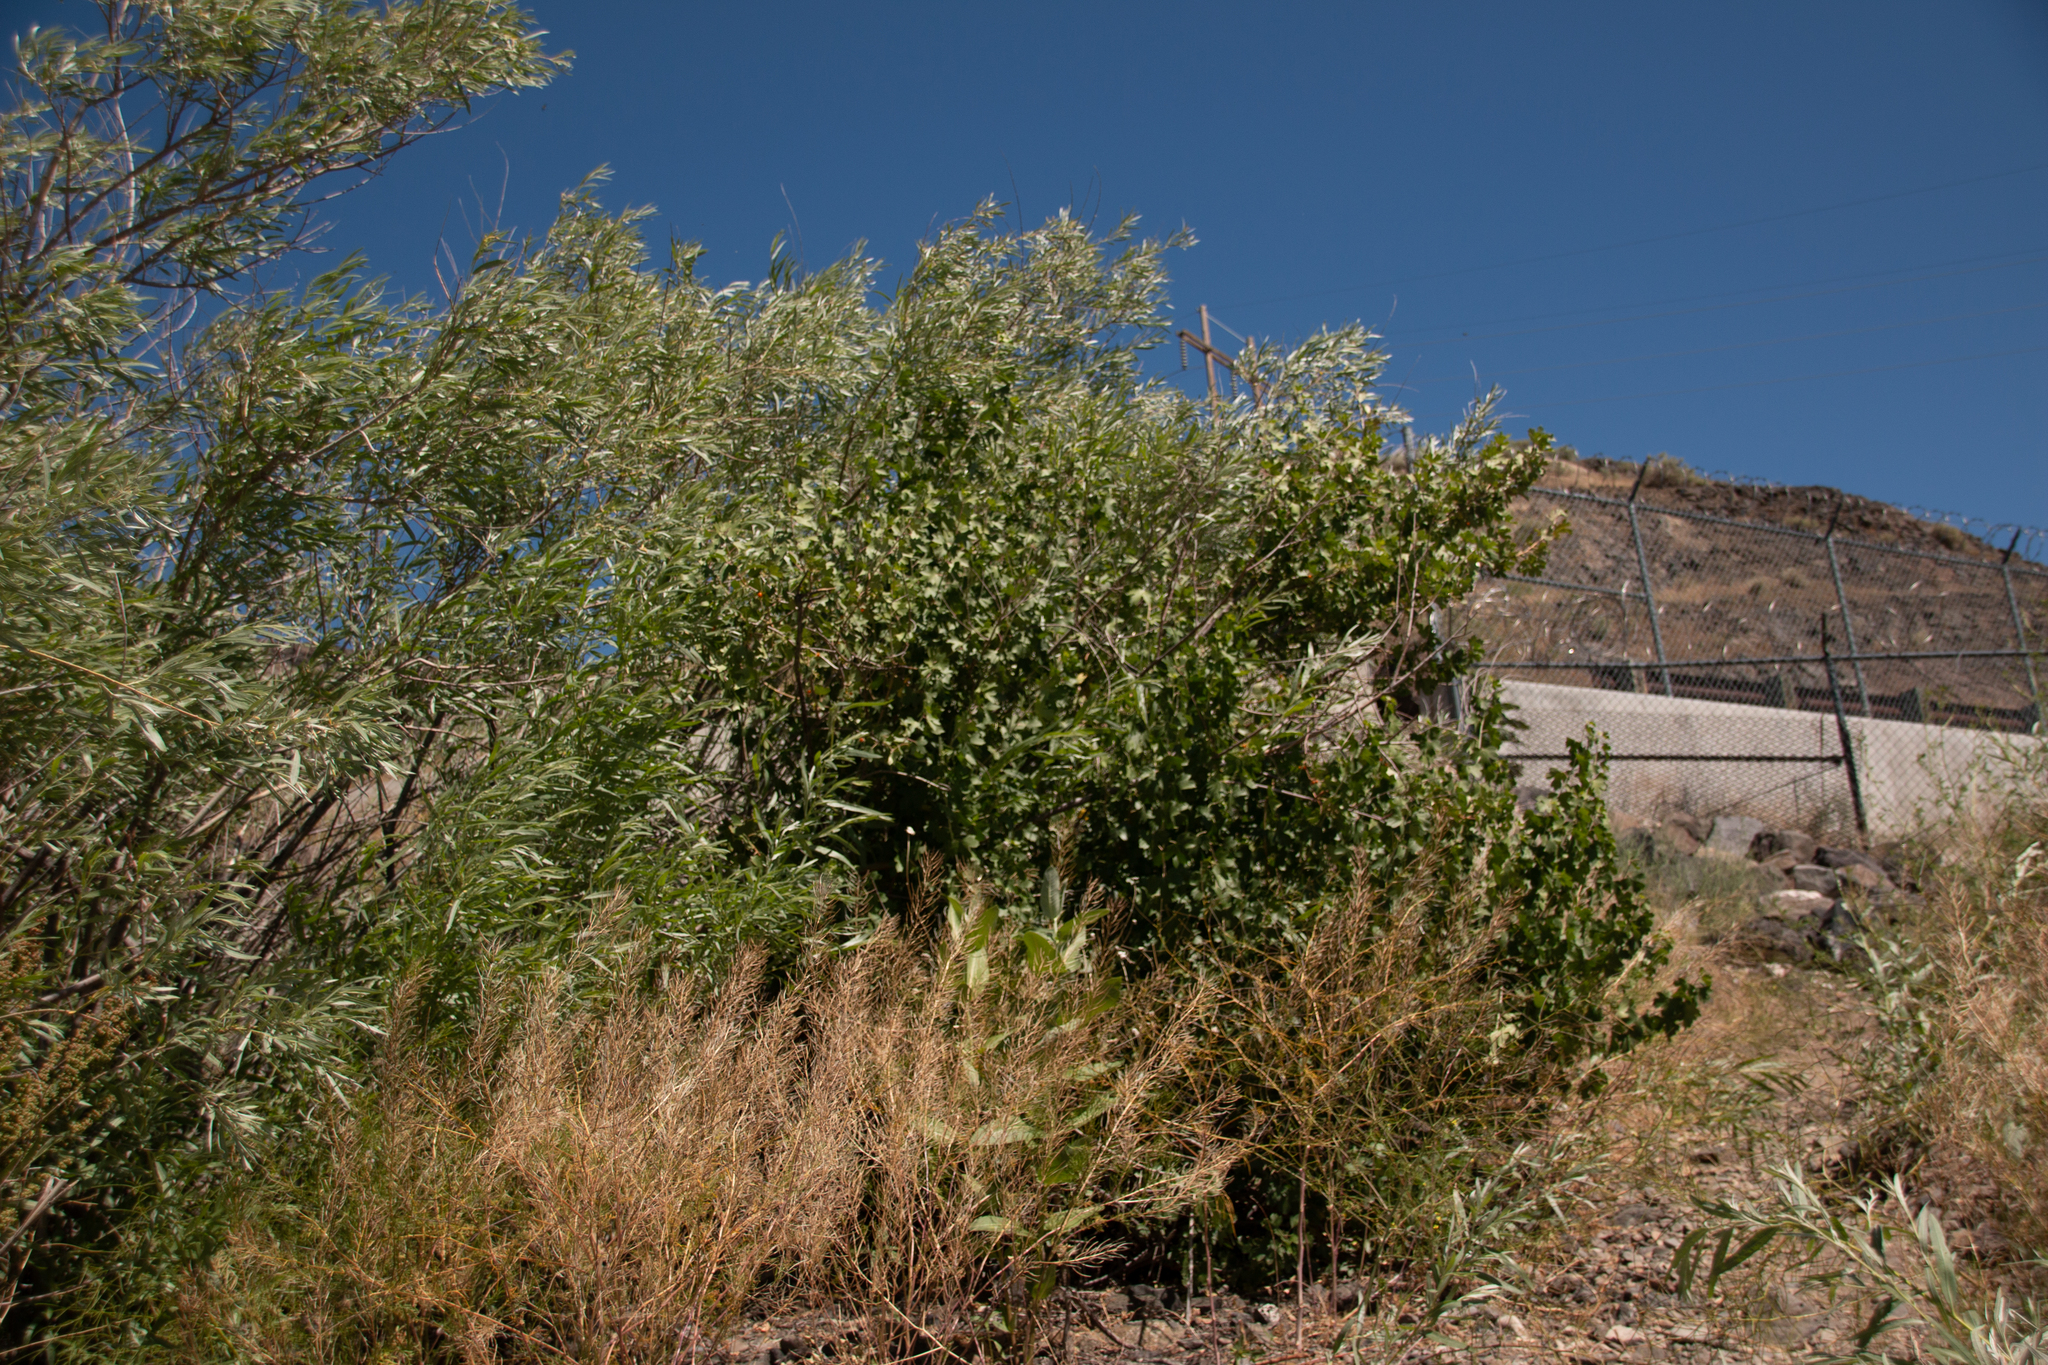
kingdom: Plantae
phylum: Tracheophyta
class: Magnoliopsida
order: Saxifragales
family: Grossulariaceae
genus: Ribes
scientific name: Ribes aureum
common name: Golden currant
